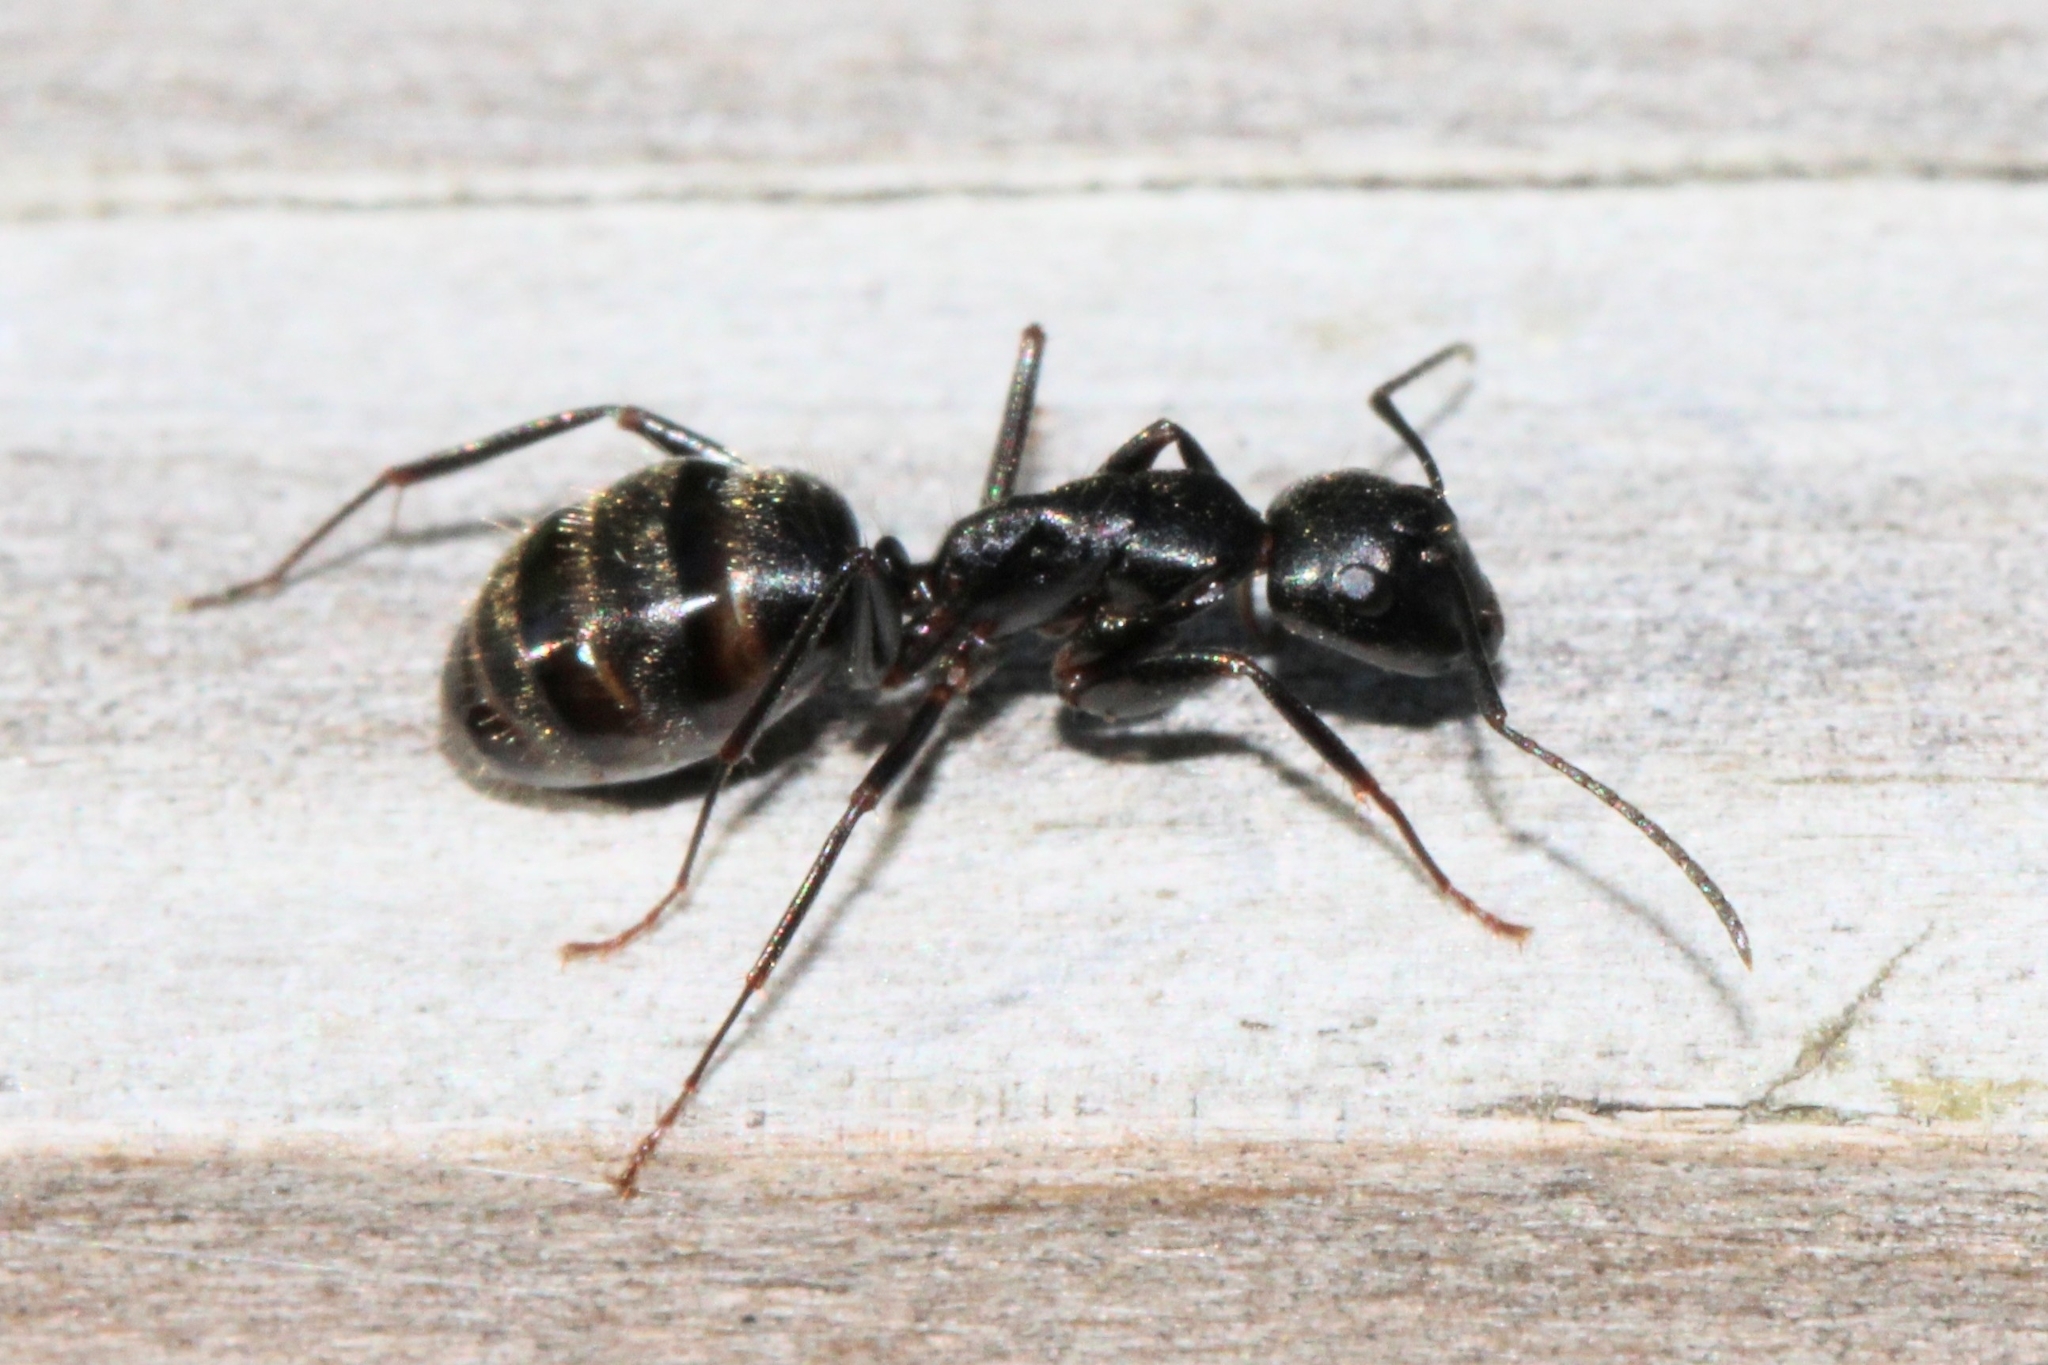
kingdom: Animalia
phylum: Arthropoda
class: Insecta
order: Hymenoptera
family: Formicidae
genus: Camponotus
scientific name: Camponotus pennsylvanicus
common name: Black carpenter ant
